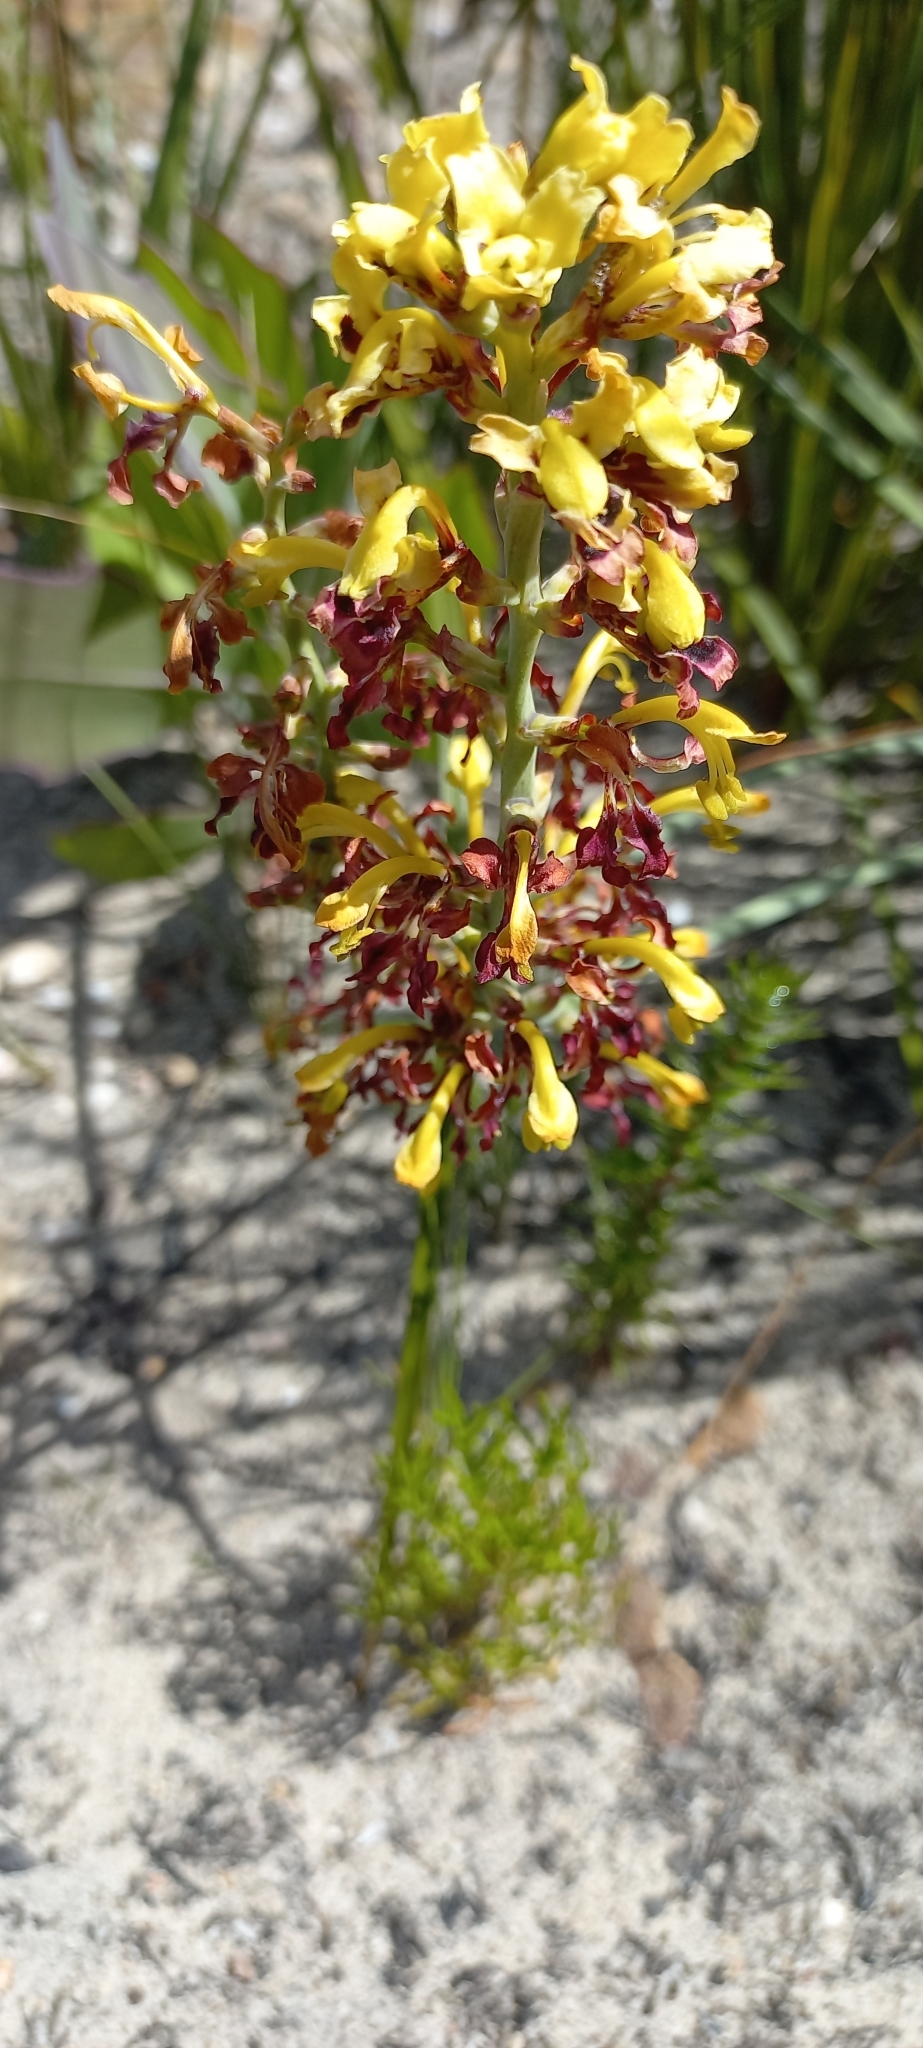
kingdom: Plantae
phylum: Tracheophyta
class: Liliopsida
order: Asparagales
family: Iridaceae
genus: Tritoniopsis
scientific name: Tritoniopsis parviflora
